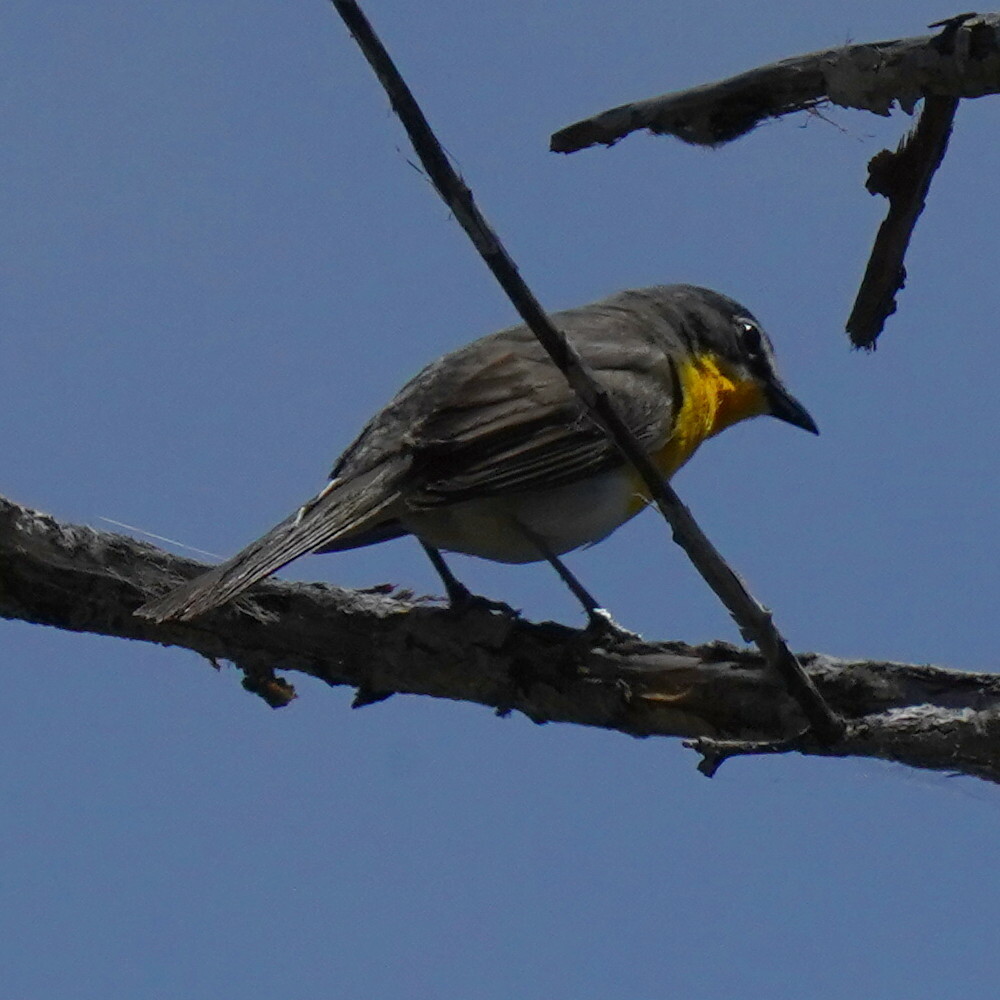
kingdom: Animalia
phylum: Chordata
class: Aves
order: Passeriformes
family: Parulidae
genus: Icteria
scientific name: Icteria virens
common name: Yellow-breasted chat
